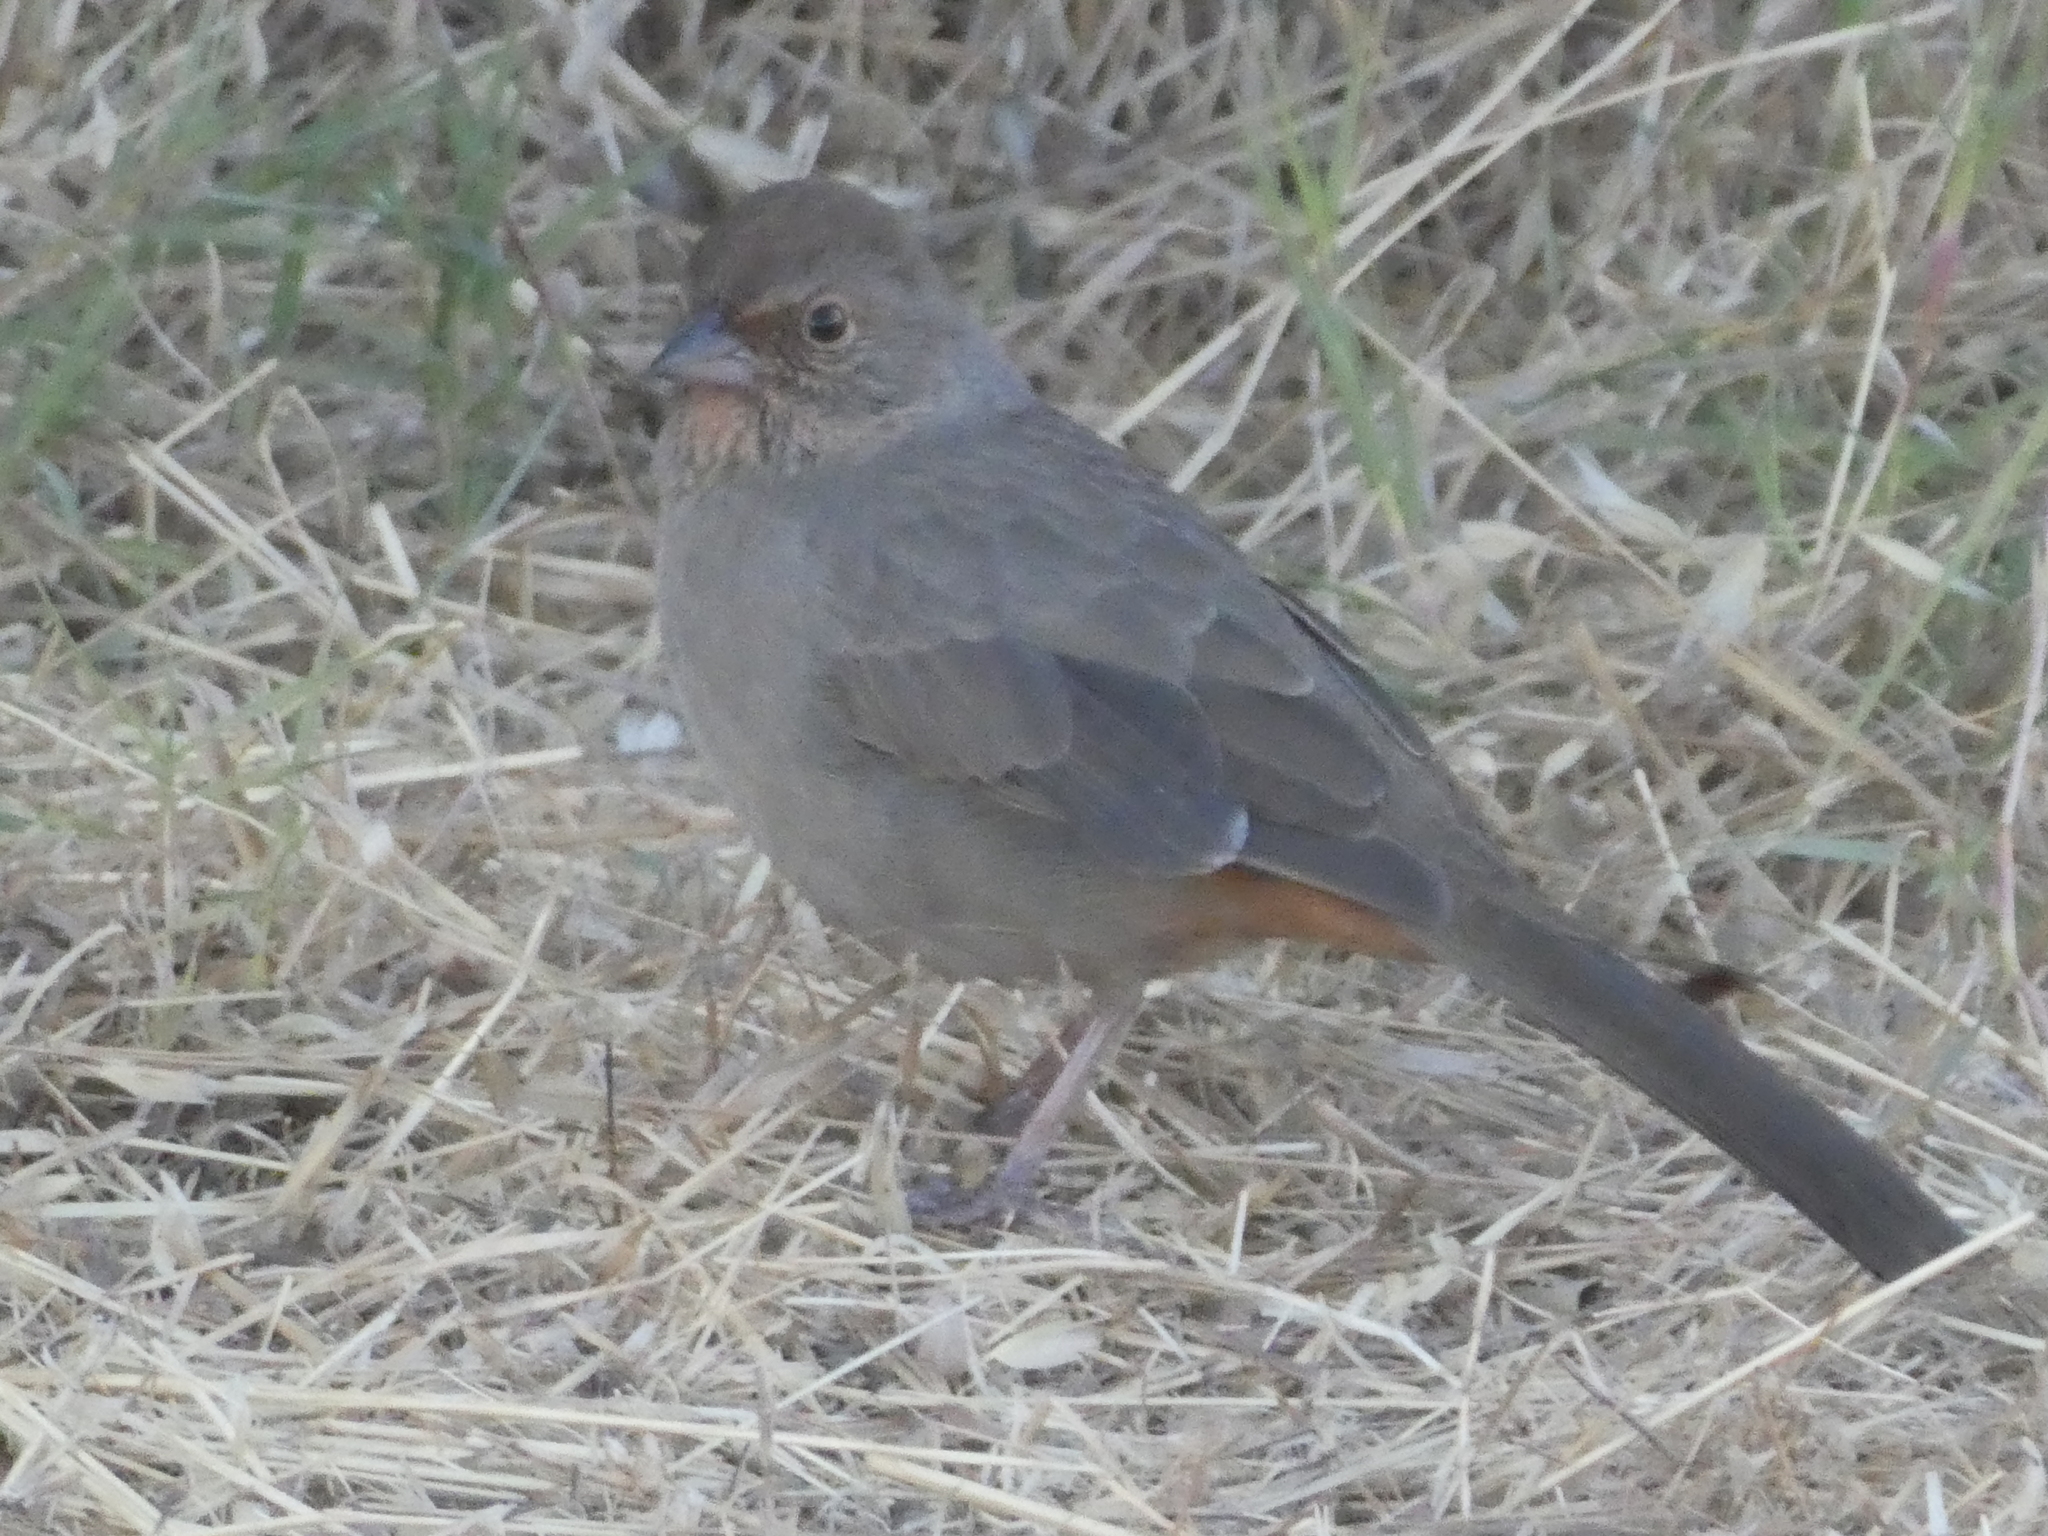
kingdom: Animalia
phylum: Chordata
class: Aves
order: Passeriformes
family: Passerellidae
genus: Melozone
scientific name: Melozone crissalis
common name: California towhee
